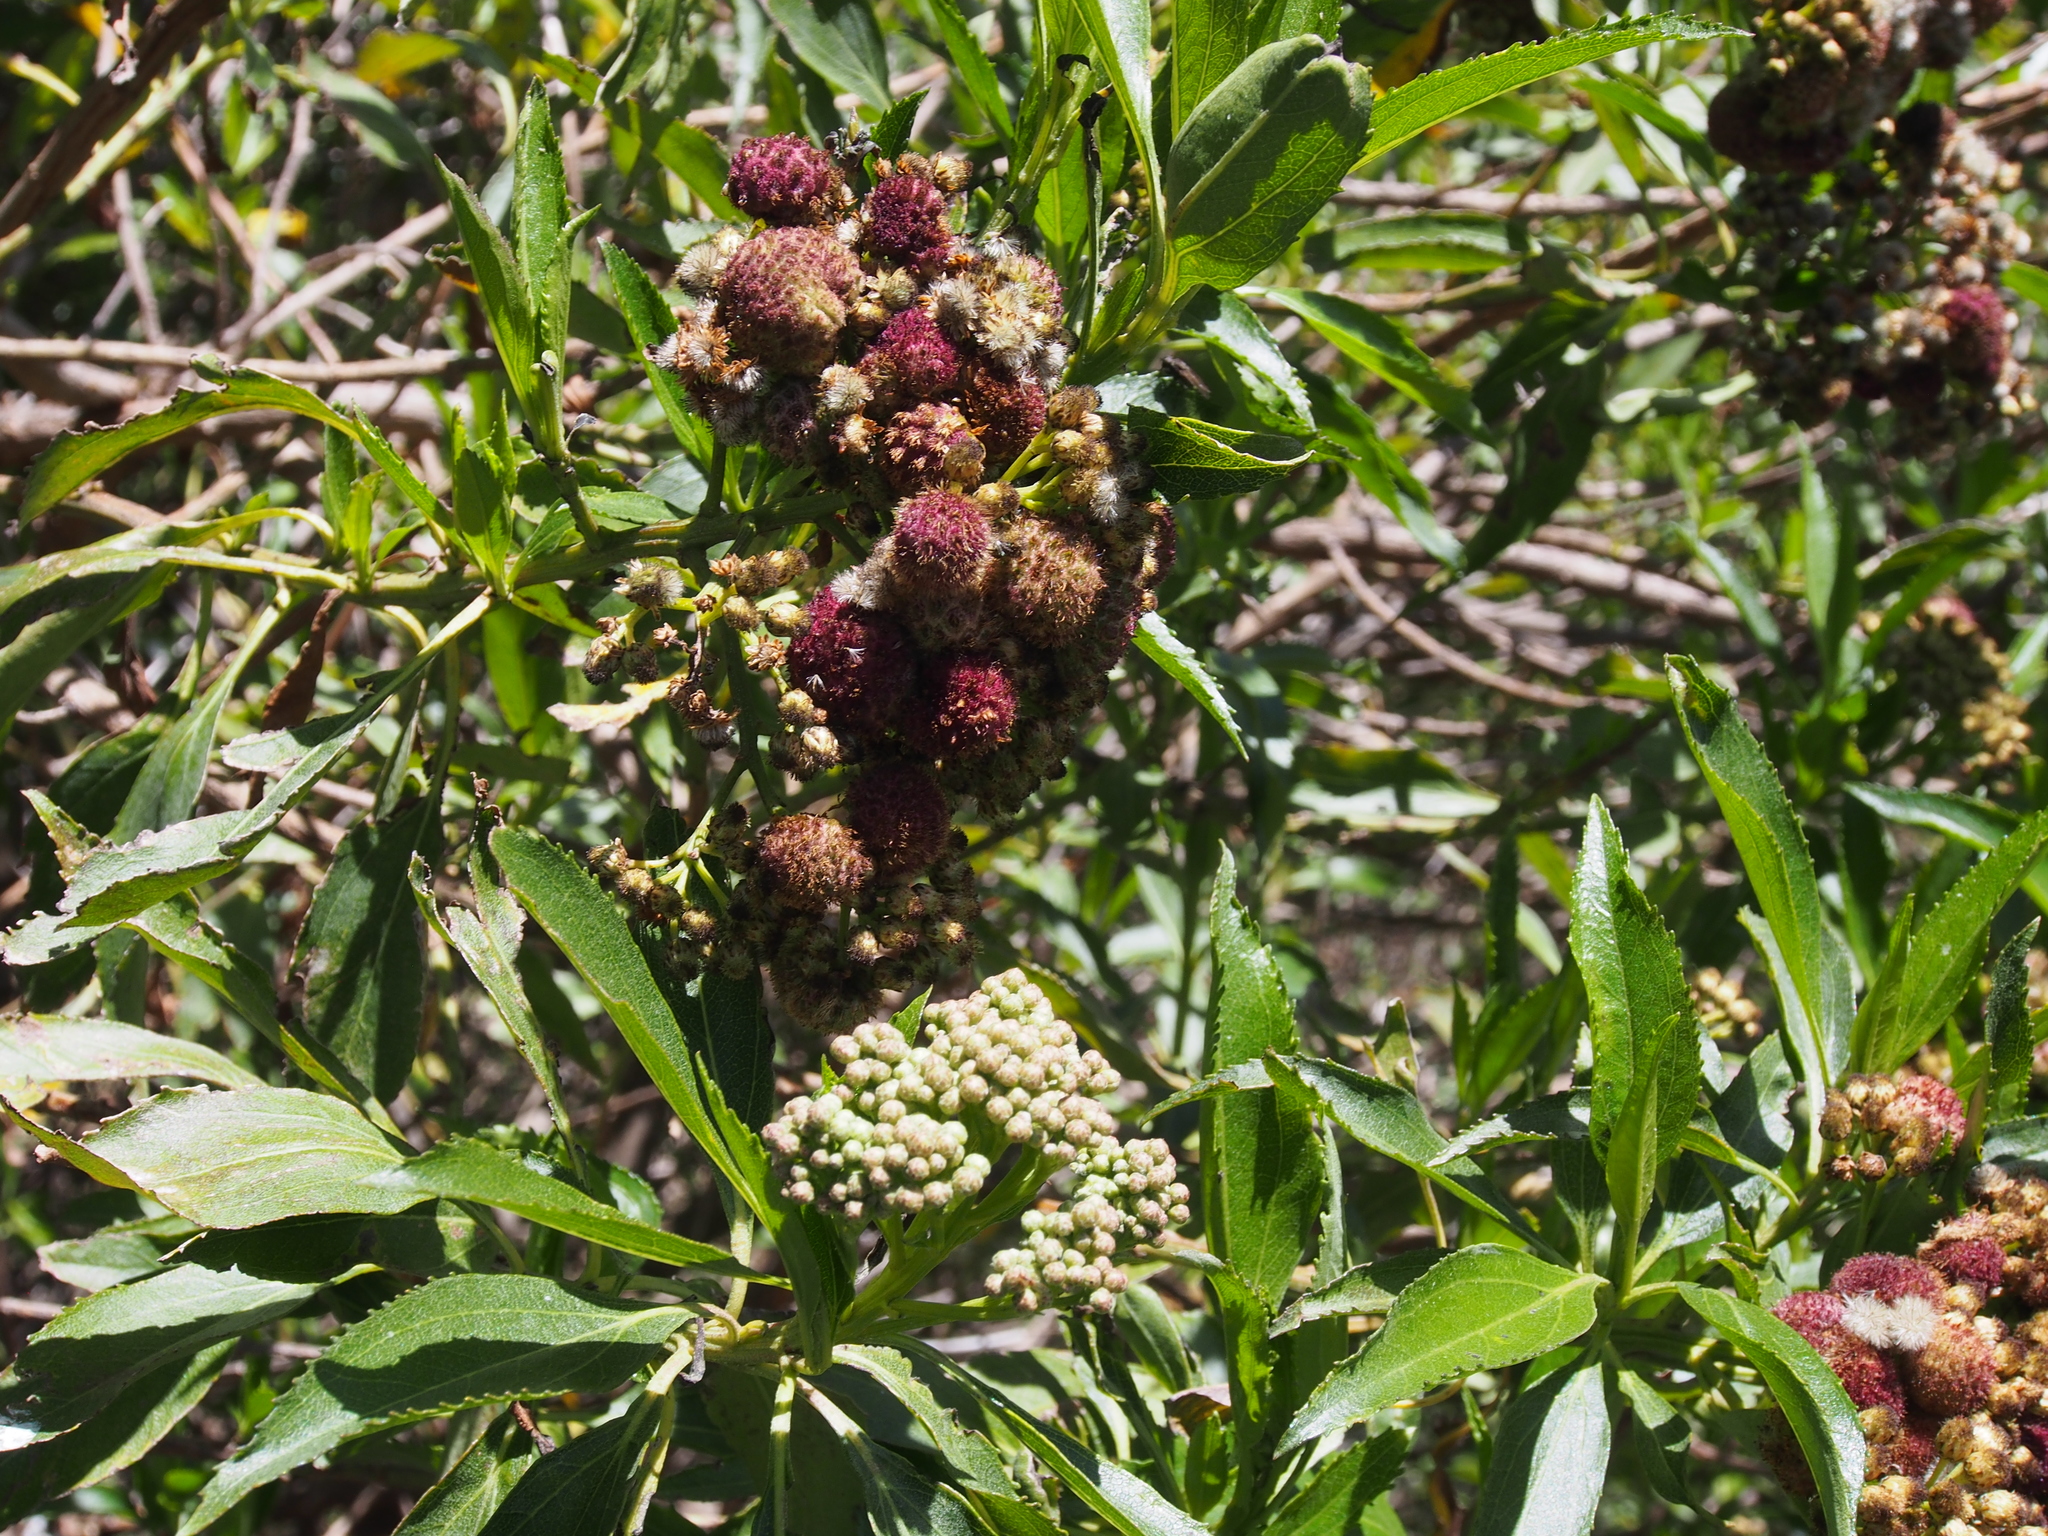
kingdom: Plantae
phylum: Tracheophyta
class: Magnoliopsida
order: Asterales
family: Asteraceae
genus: Baccharis
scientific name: Baccharis latifolia
